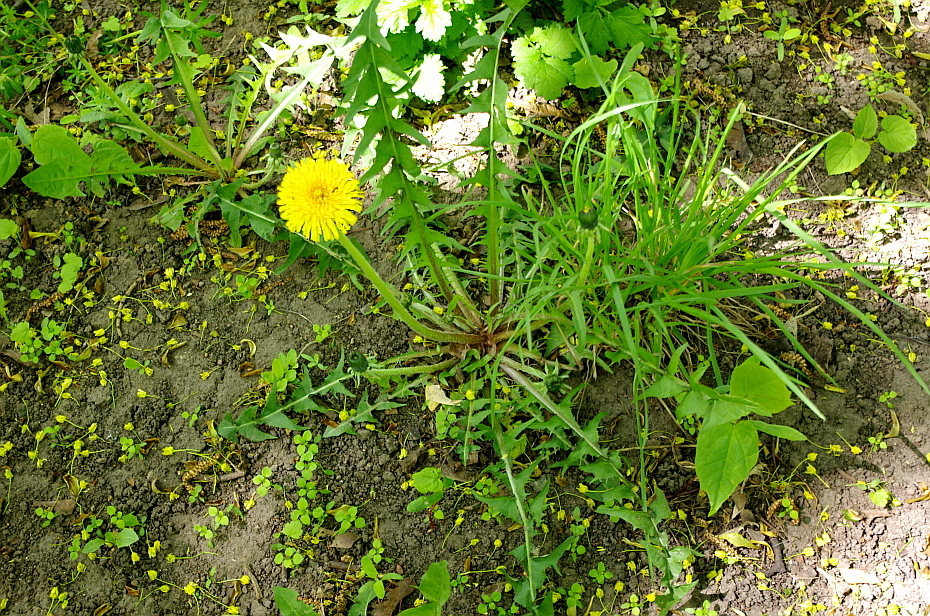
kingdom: Plantae
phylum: Tracheophyta
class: Magnoliopsida
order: Asterales
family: Asteraceae
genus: Taraxacum
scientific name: Taraxacum officinale
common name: Common dandelion
